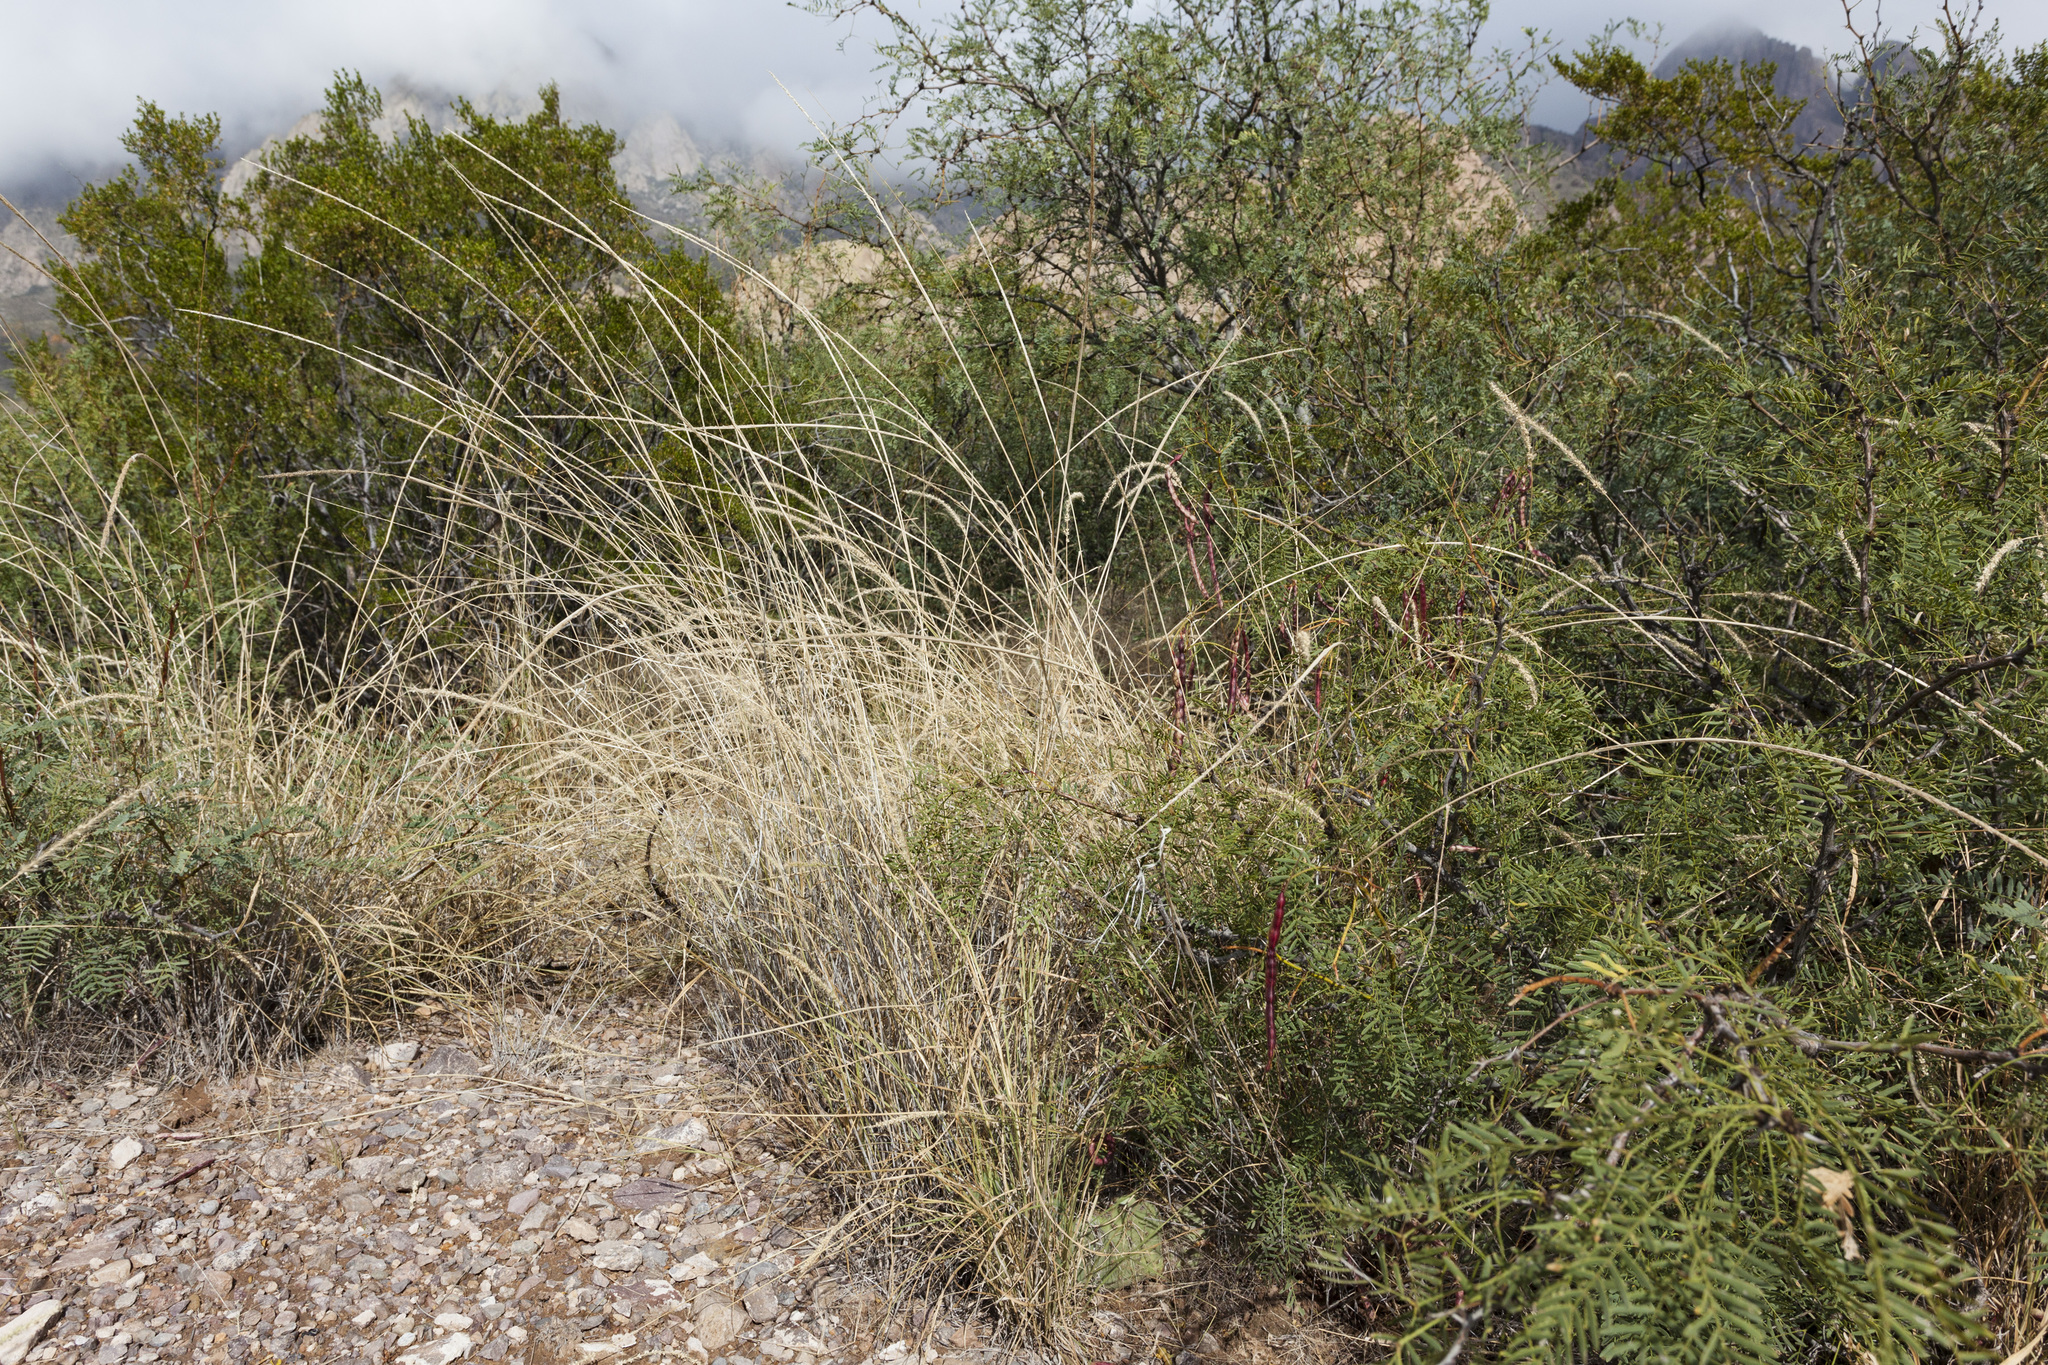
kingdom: Plantae
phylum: Tracheophyta
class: Liliopsida
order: Poales
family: Poaceae
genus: Sporobolus
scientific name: Sporobolus contractus
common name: Spike dropseed
